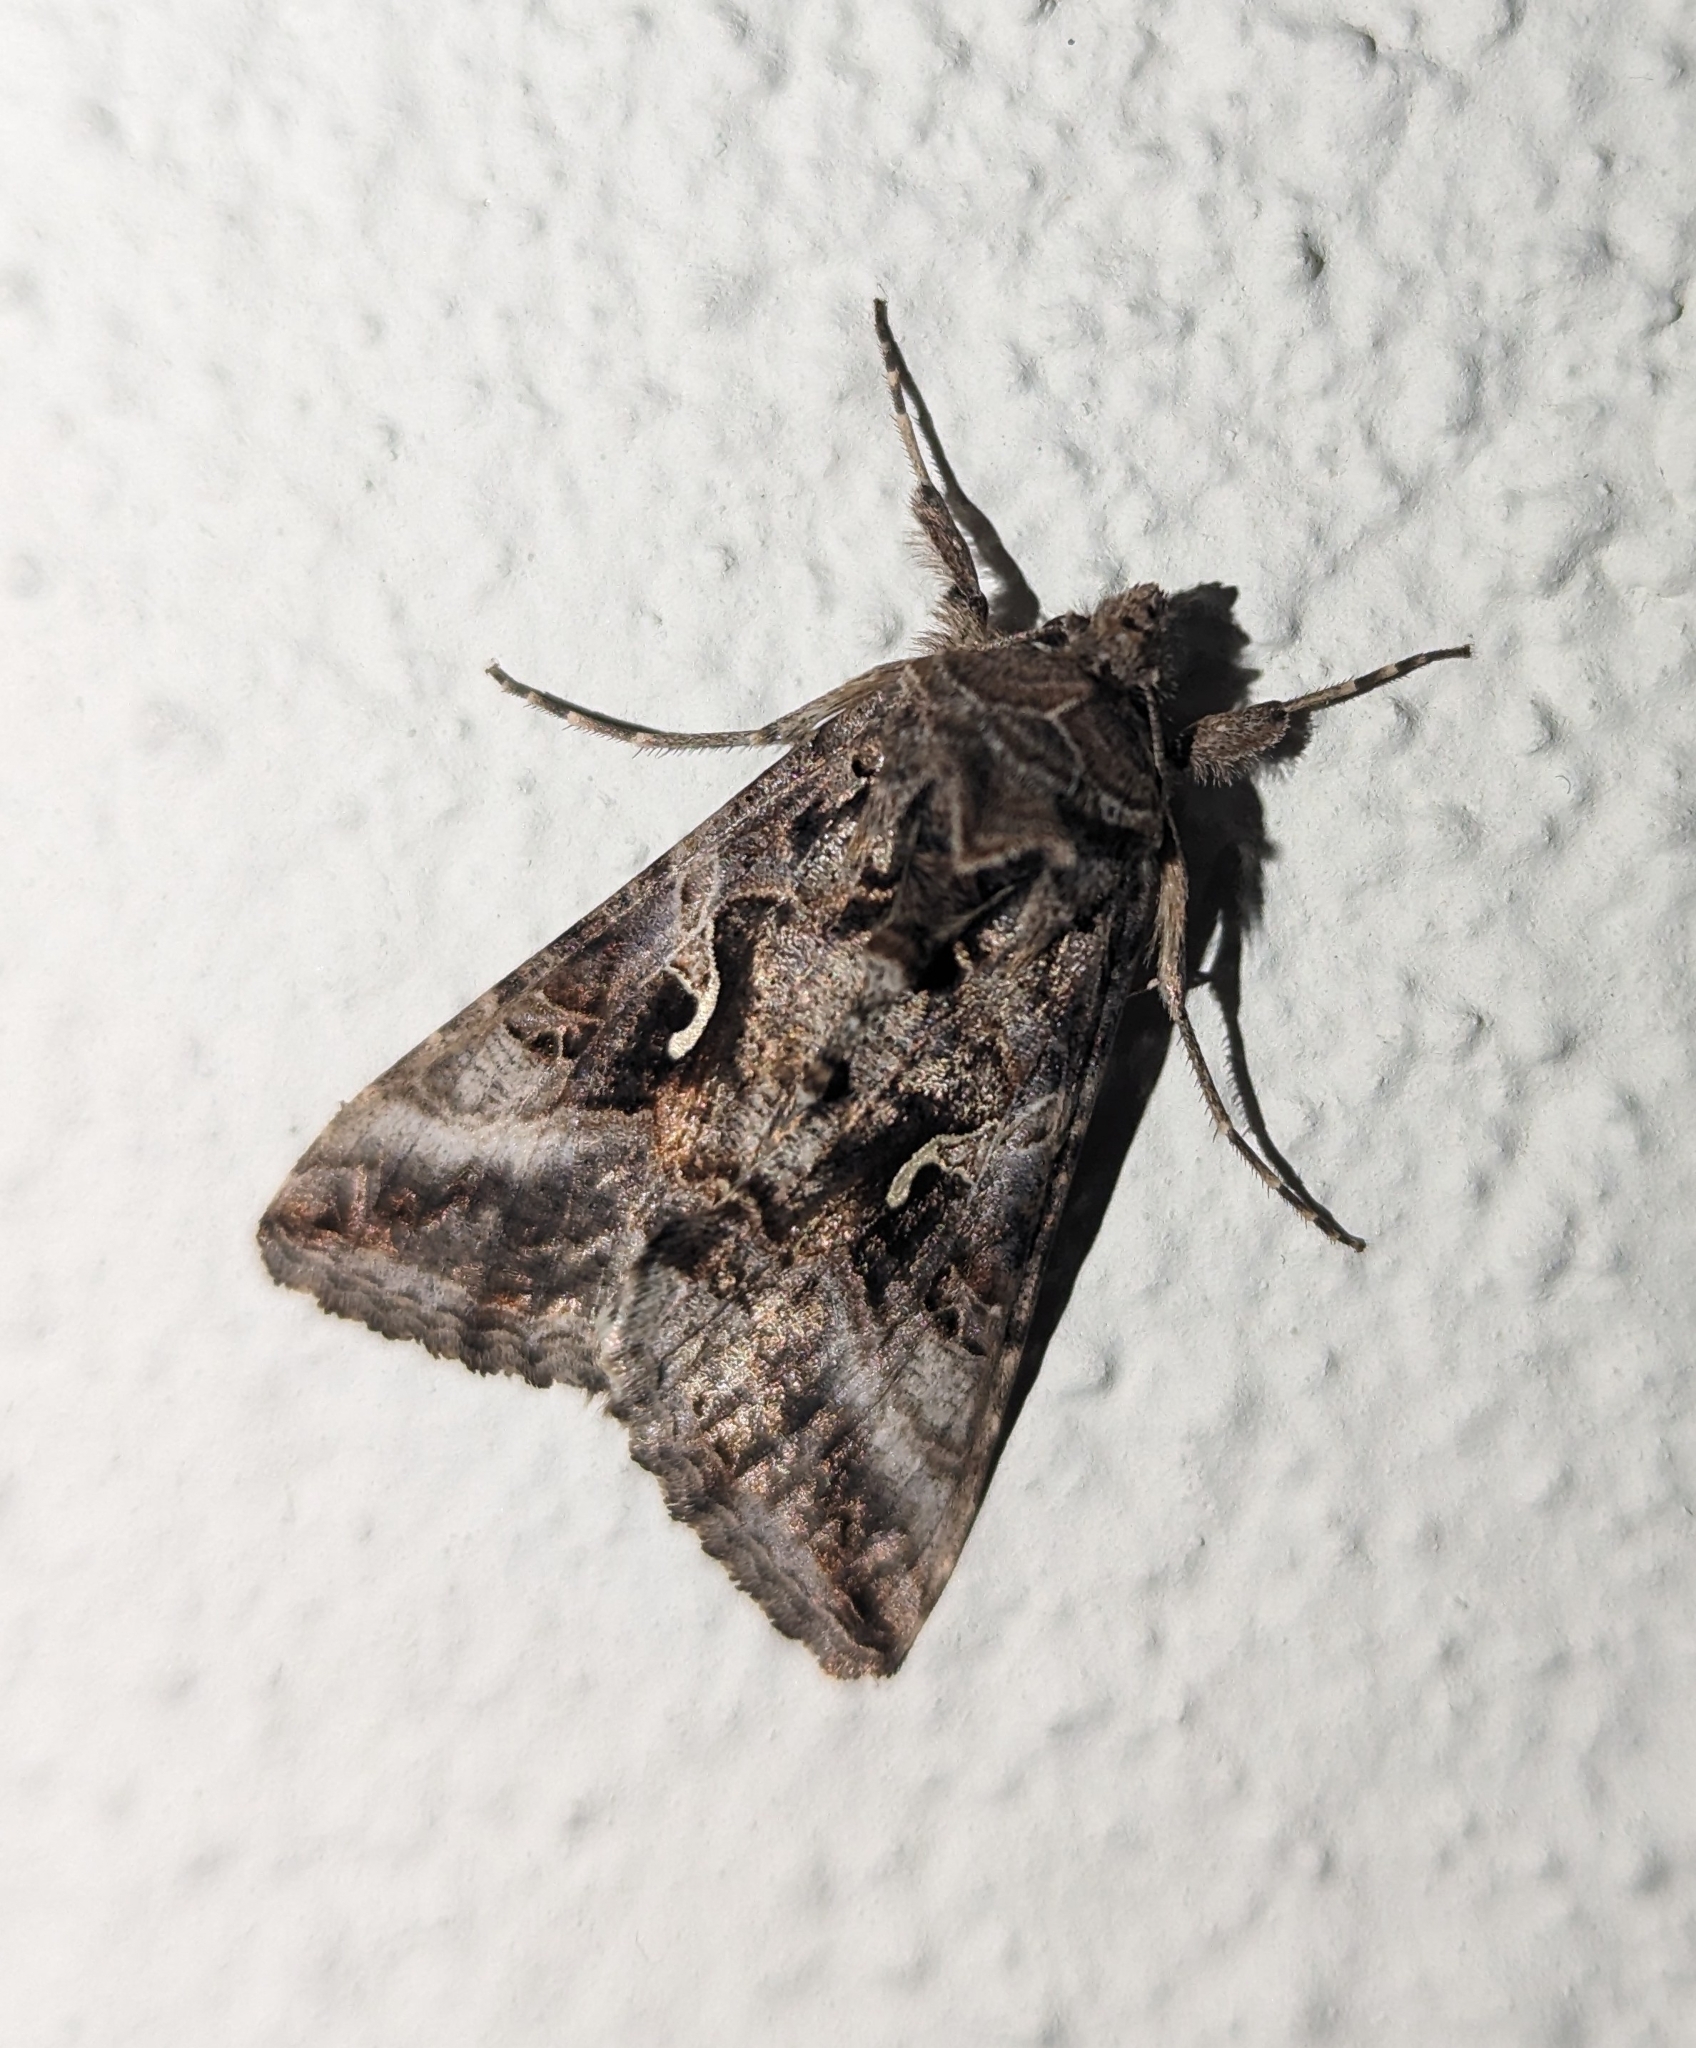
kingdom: Animalia
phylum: Arthropoda
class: Insecta
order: Lepidoptera
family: Noctuidae
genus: Autographa
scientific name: Autographa gamma
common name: Silver y
